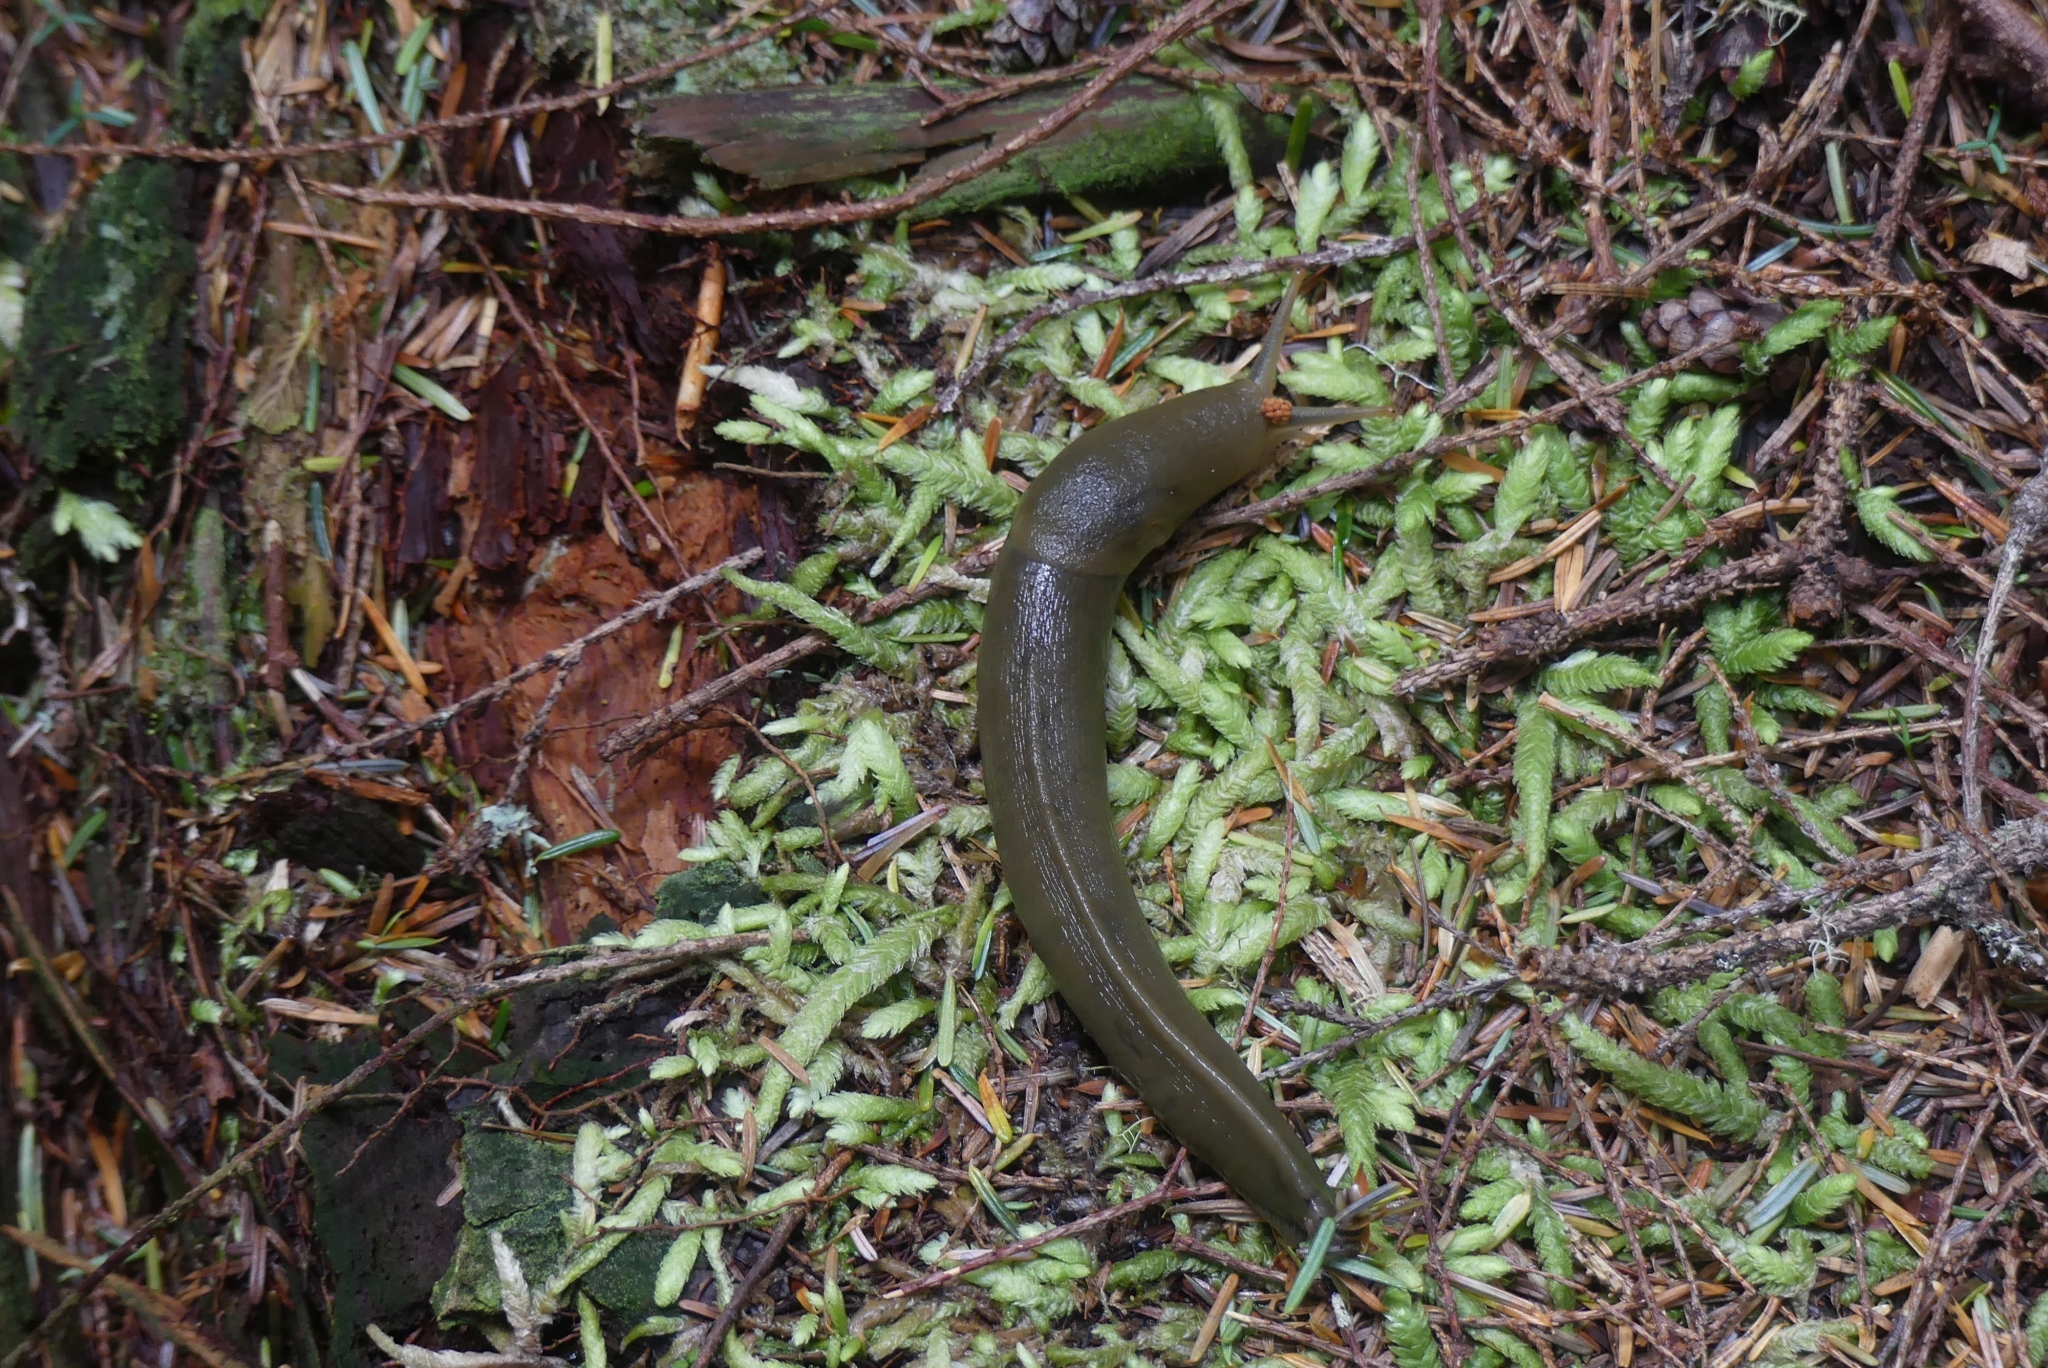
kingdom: Animalia
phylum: Mollusca
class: Gastropoda
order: Stylommatophora
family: Ariolimacidae
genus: Ariolimax
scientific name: Ariolimax columbianus
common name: Pacific banana slug
